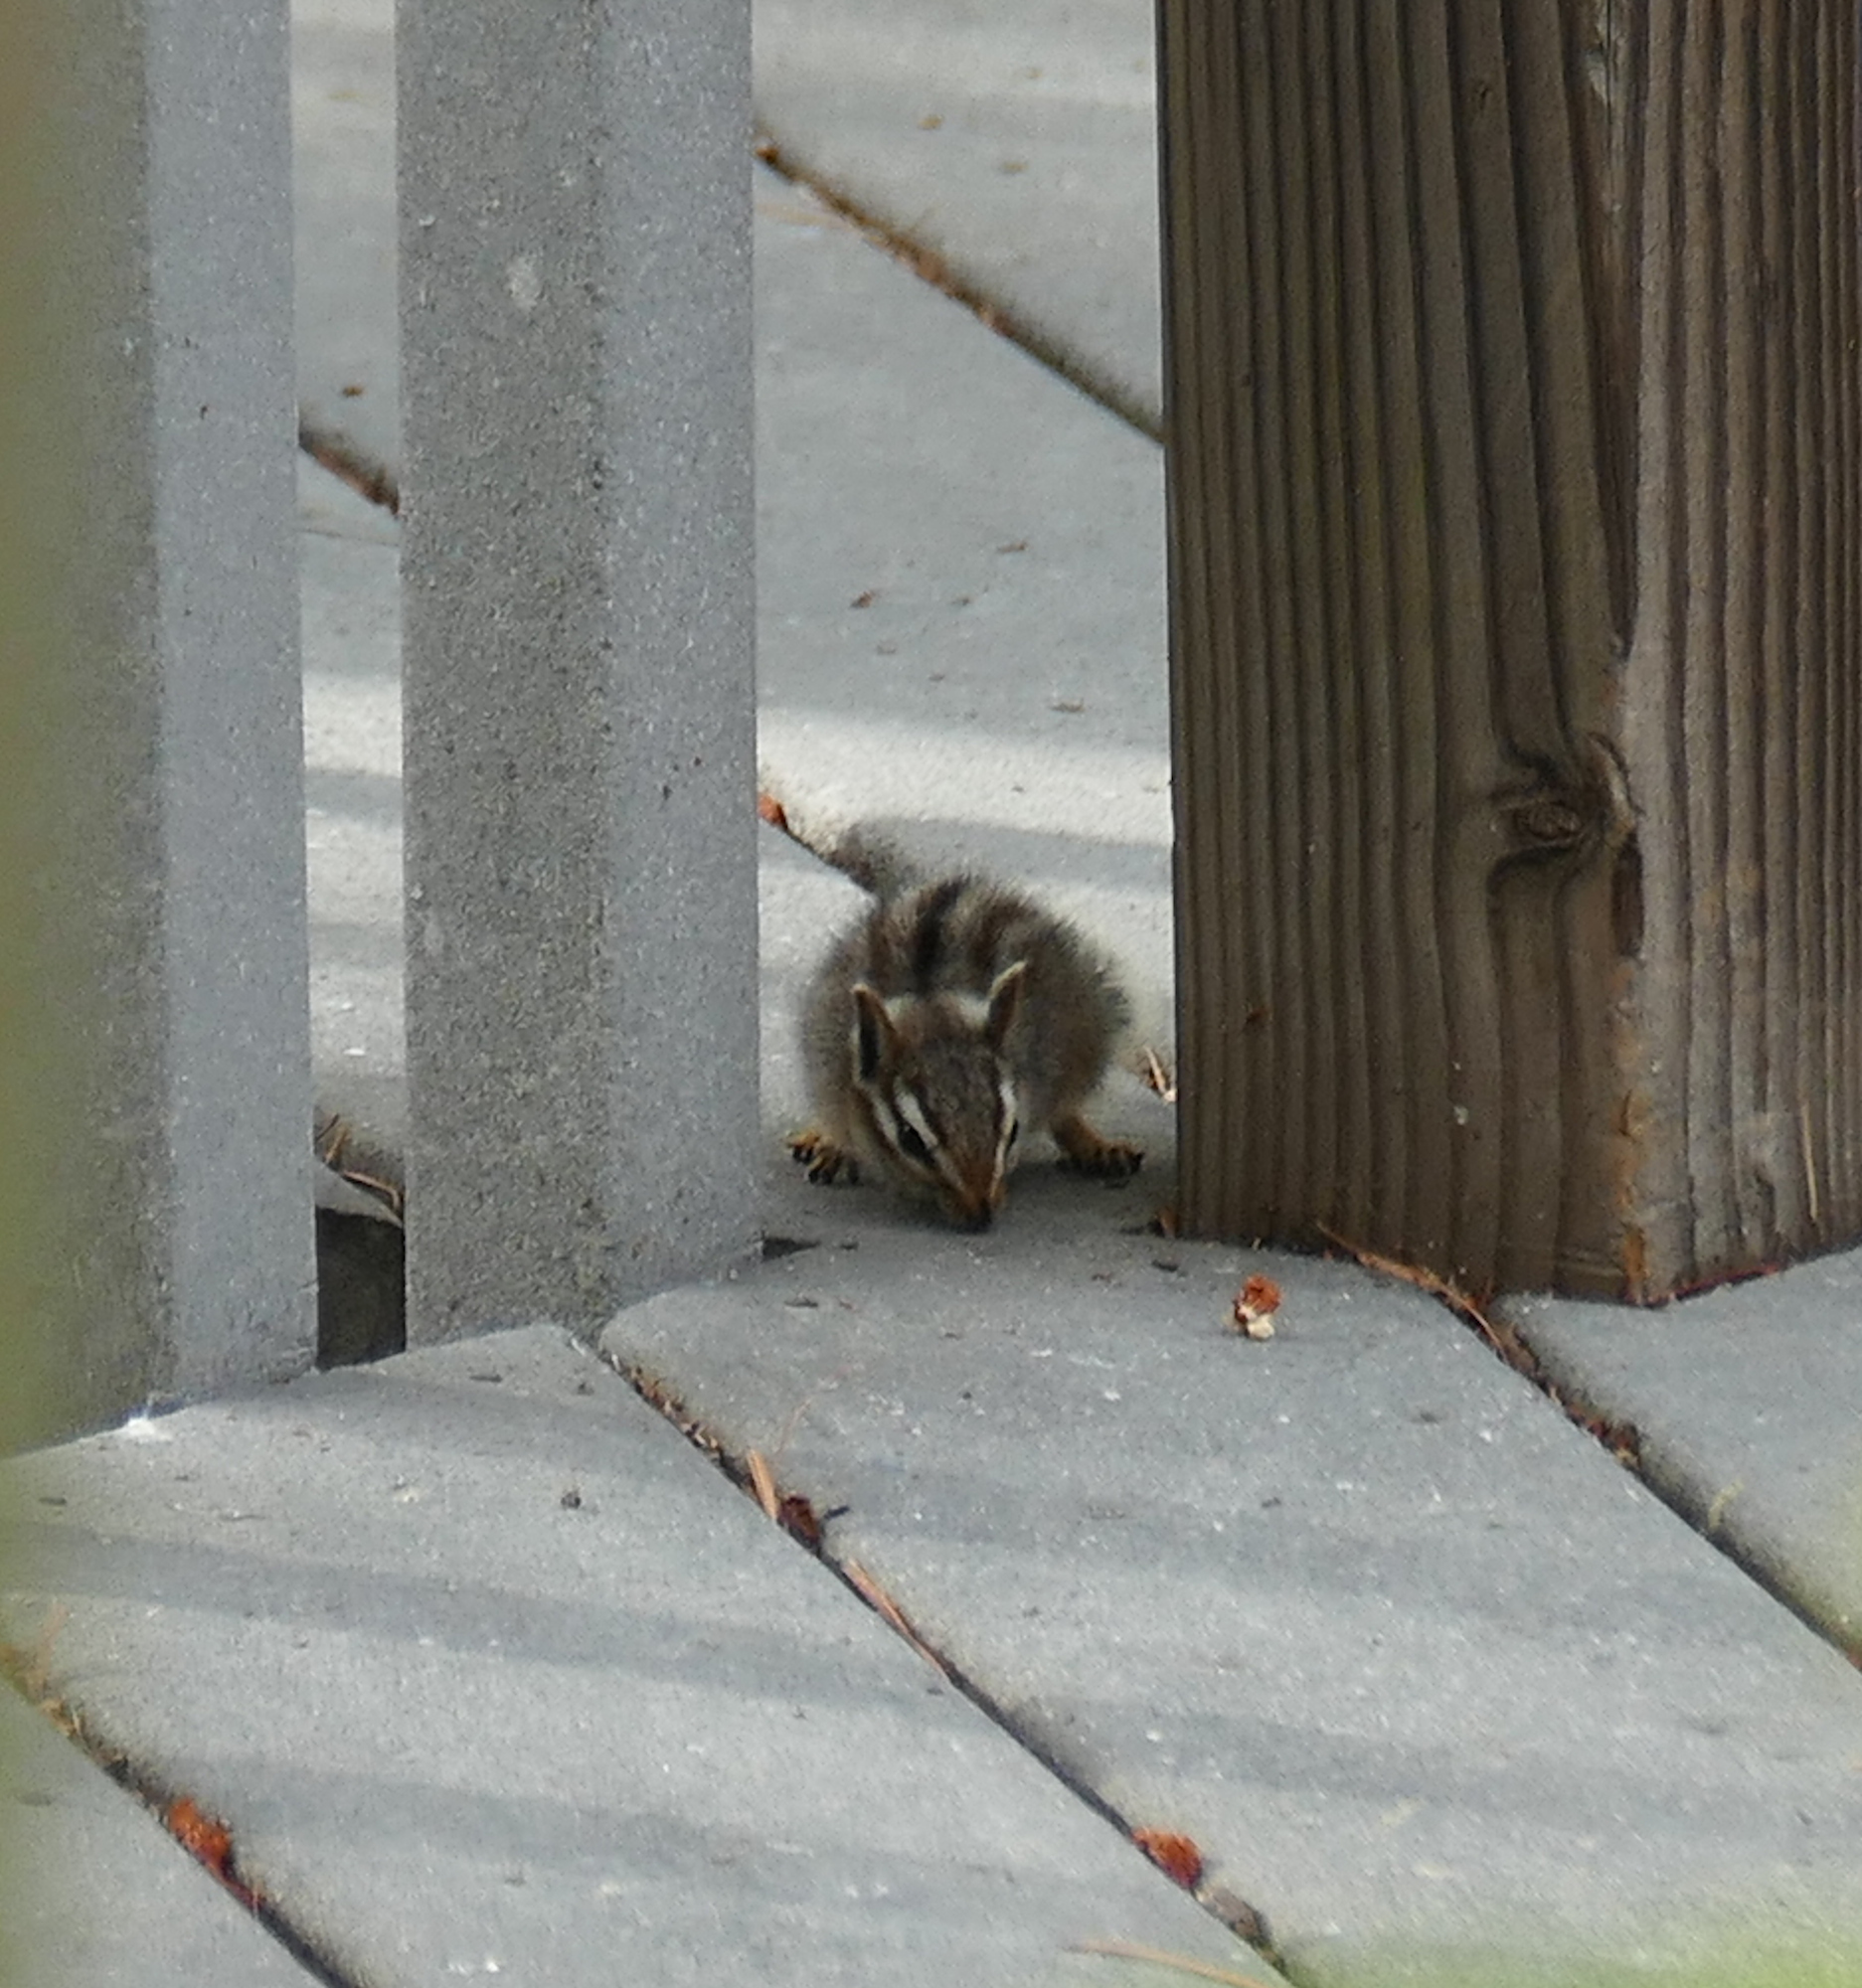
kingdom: Animalia
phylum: Chordata
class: Mammalia
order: Rodentia
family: Sciuridae
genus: Tamias
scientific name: Tamias dorsalis
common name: Cliff chipmunk
